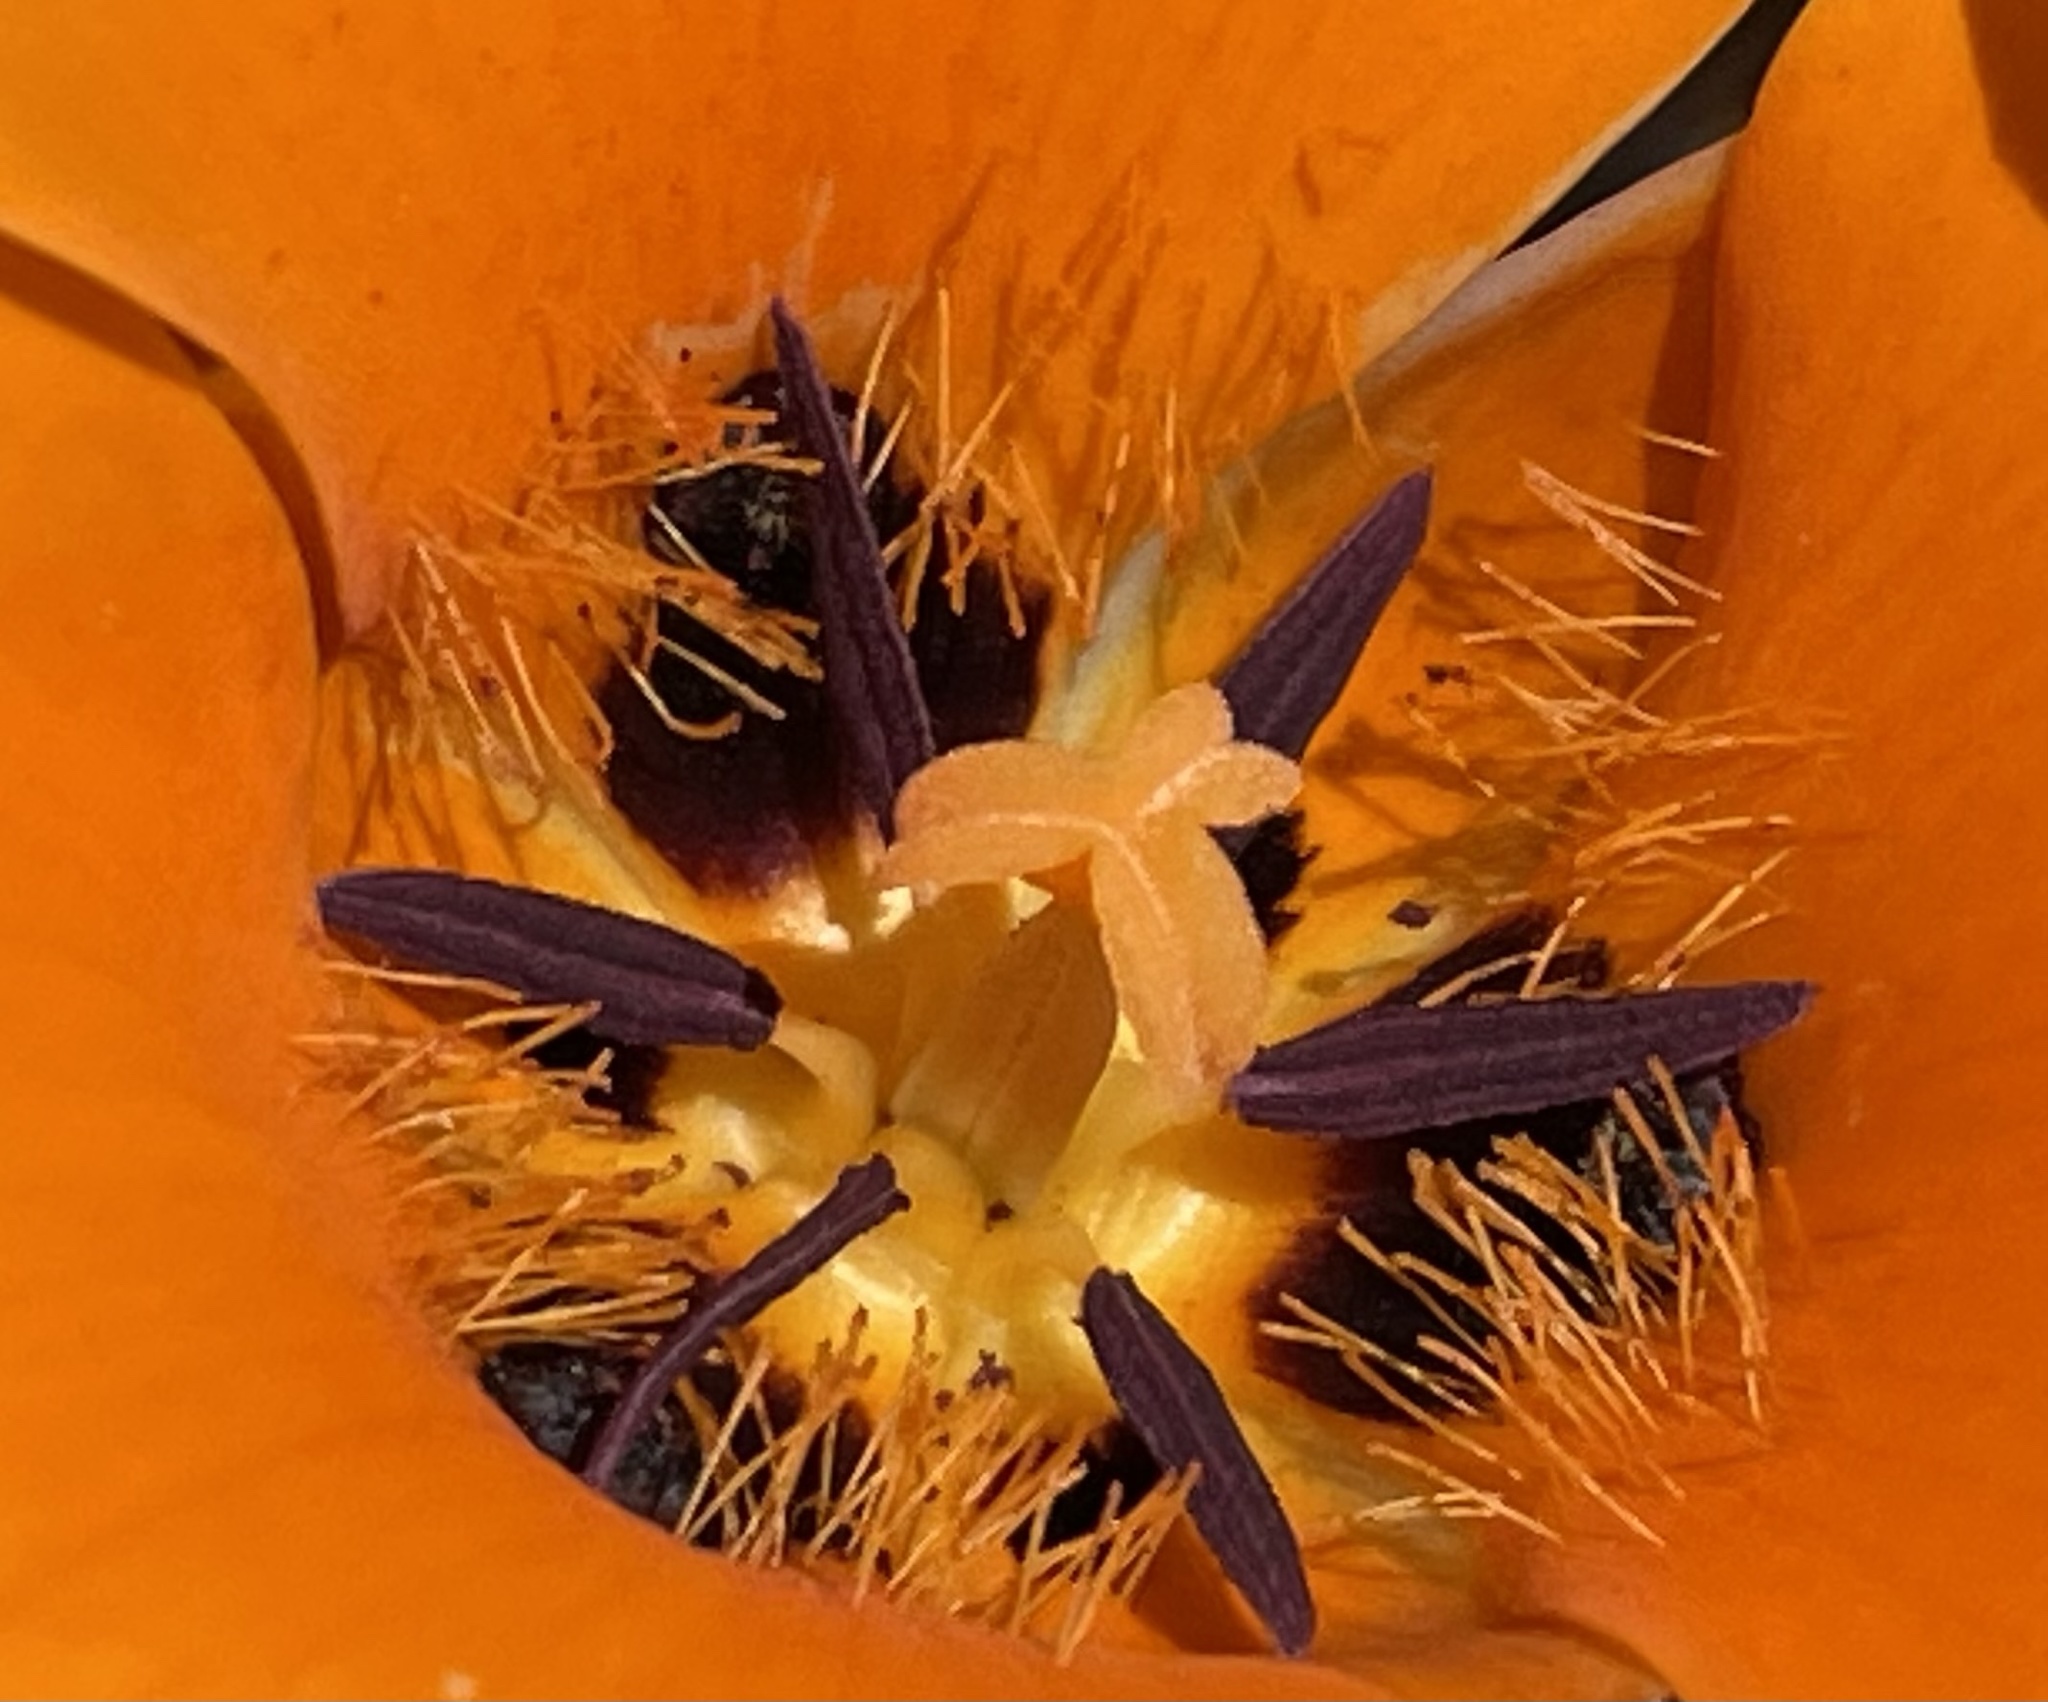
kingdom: Plantae
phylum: Tracheophyta
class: Liliopsida
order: Liliales
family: Liliaceae
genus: Calochortus
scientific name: Calochortus kennedyi
